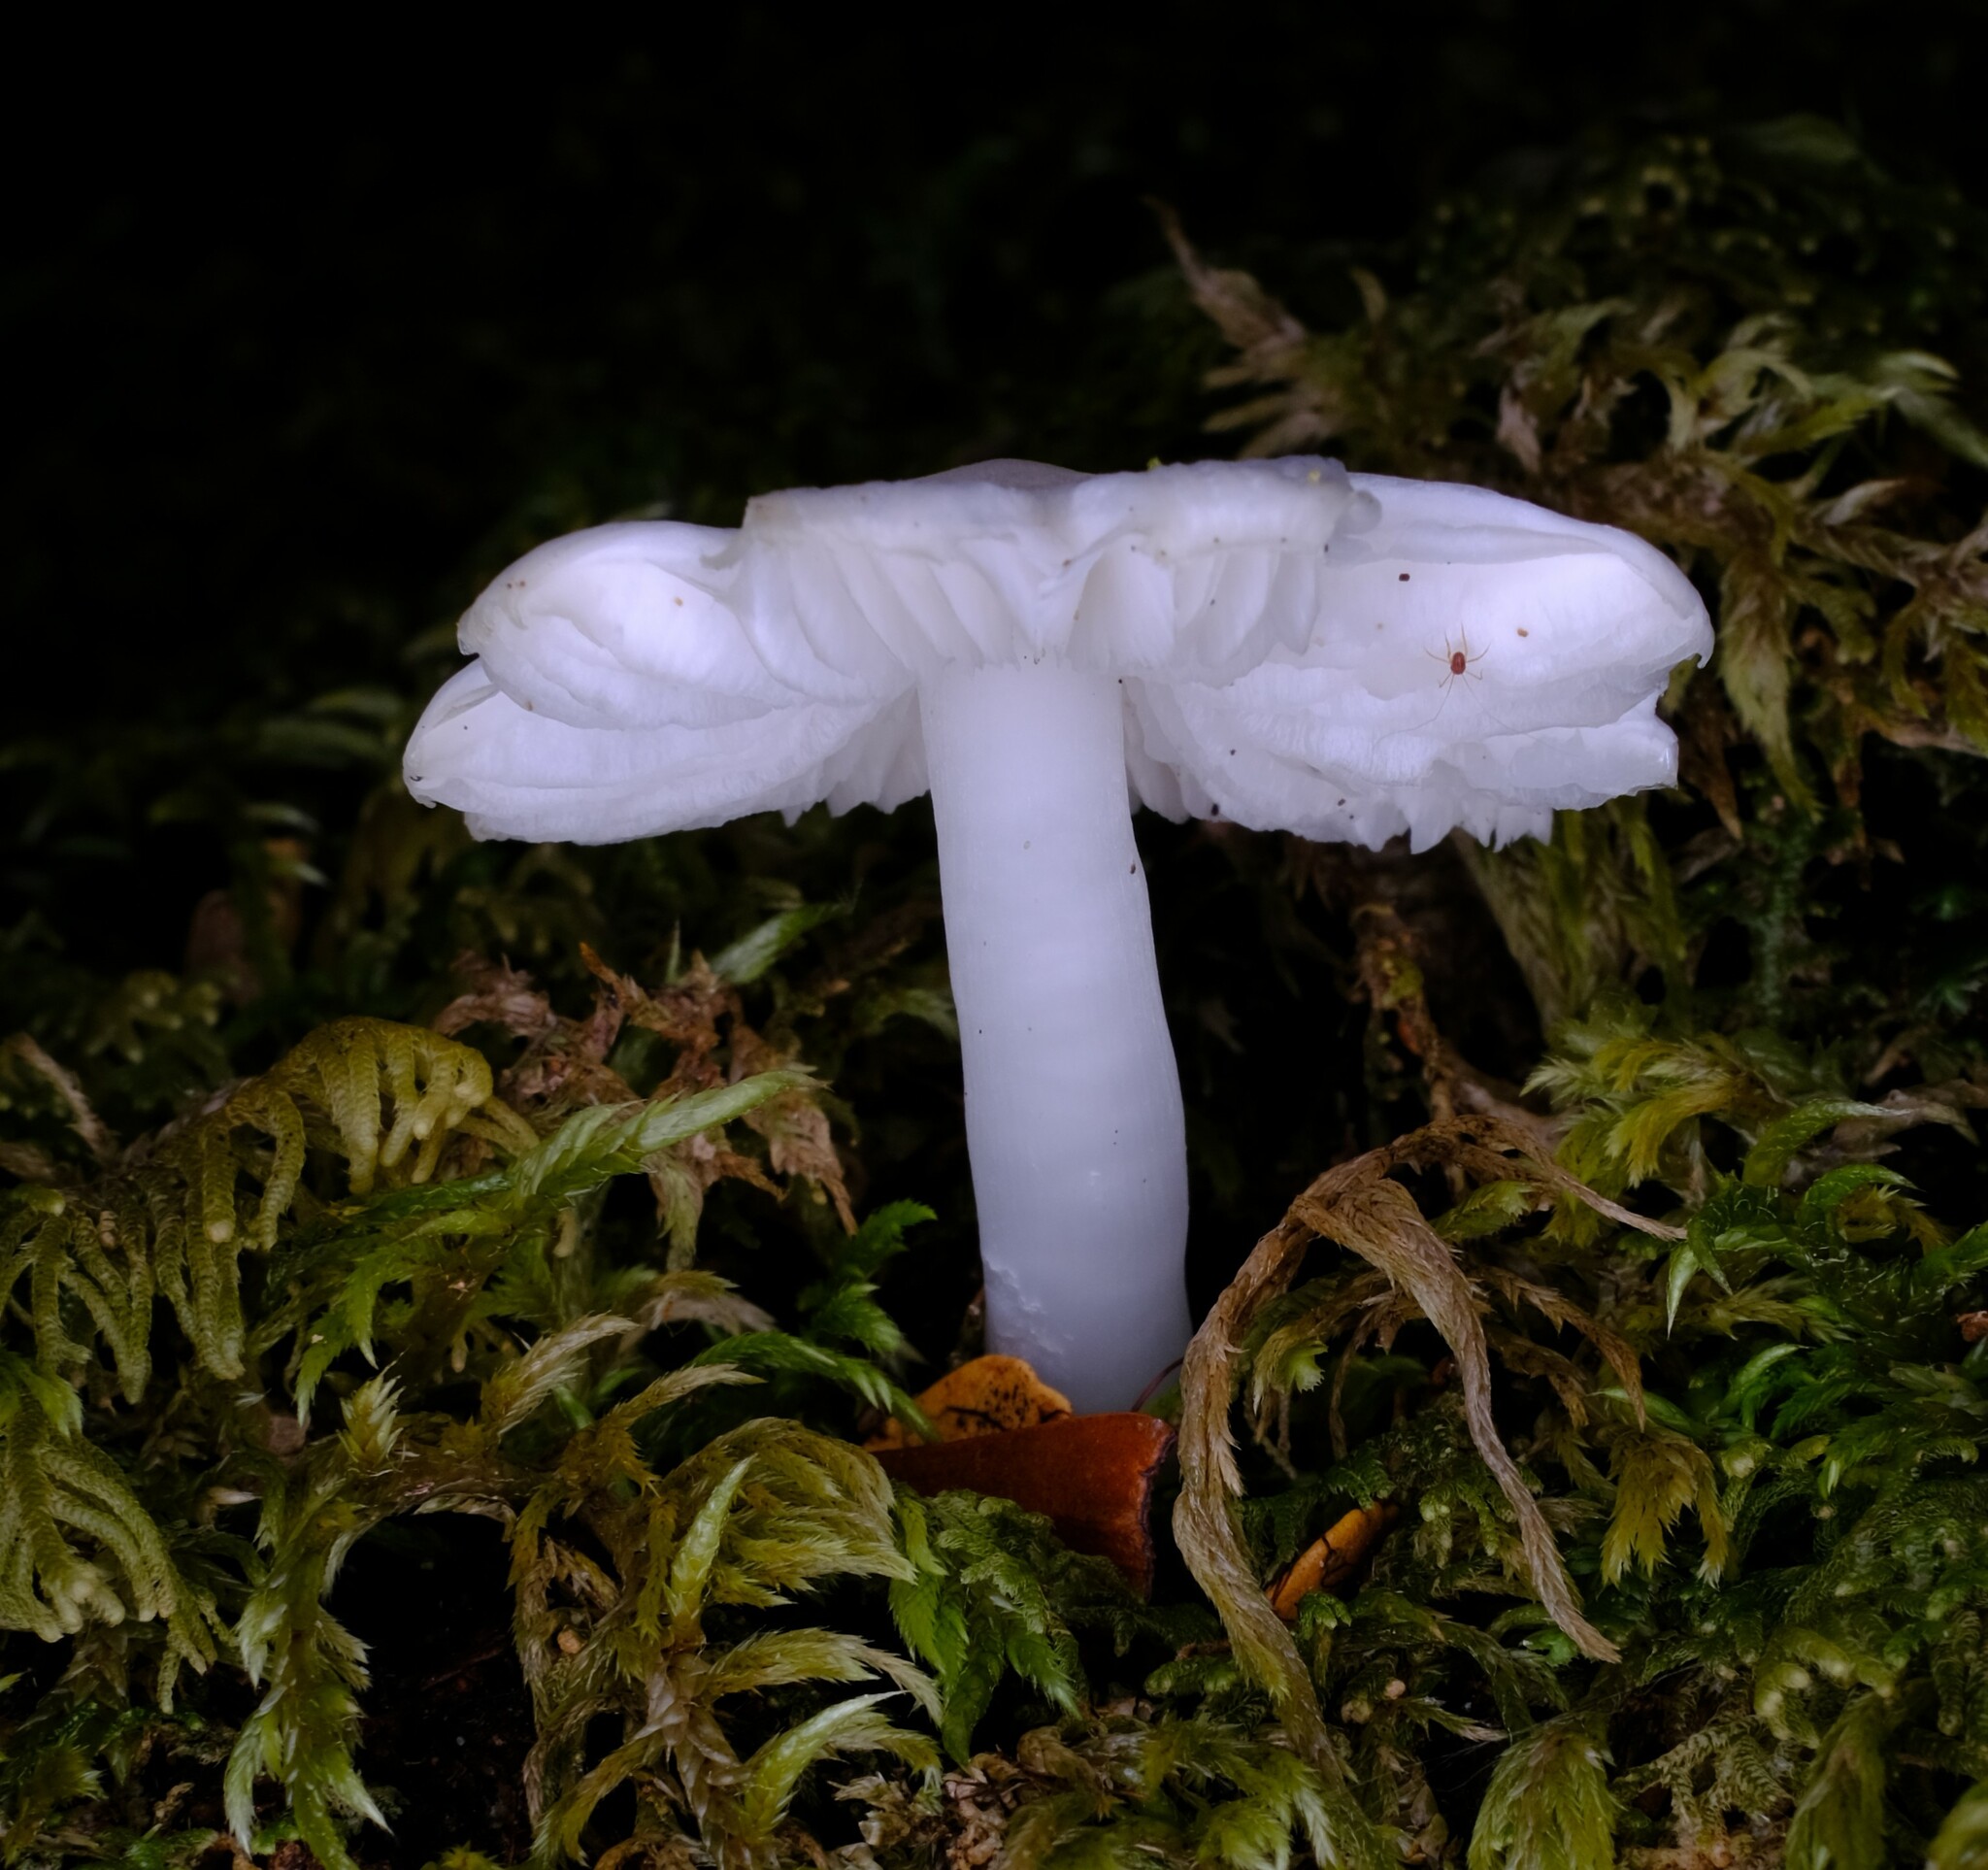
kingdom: Fungi
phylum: Basidiomycota
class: Agaricomycetes
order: Agaricales
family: Hygrophoraceae
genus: Humidicutis
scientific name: Humidicutis mavis
